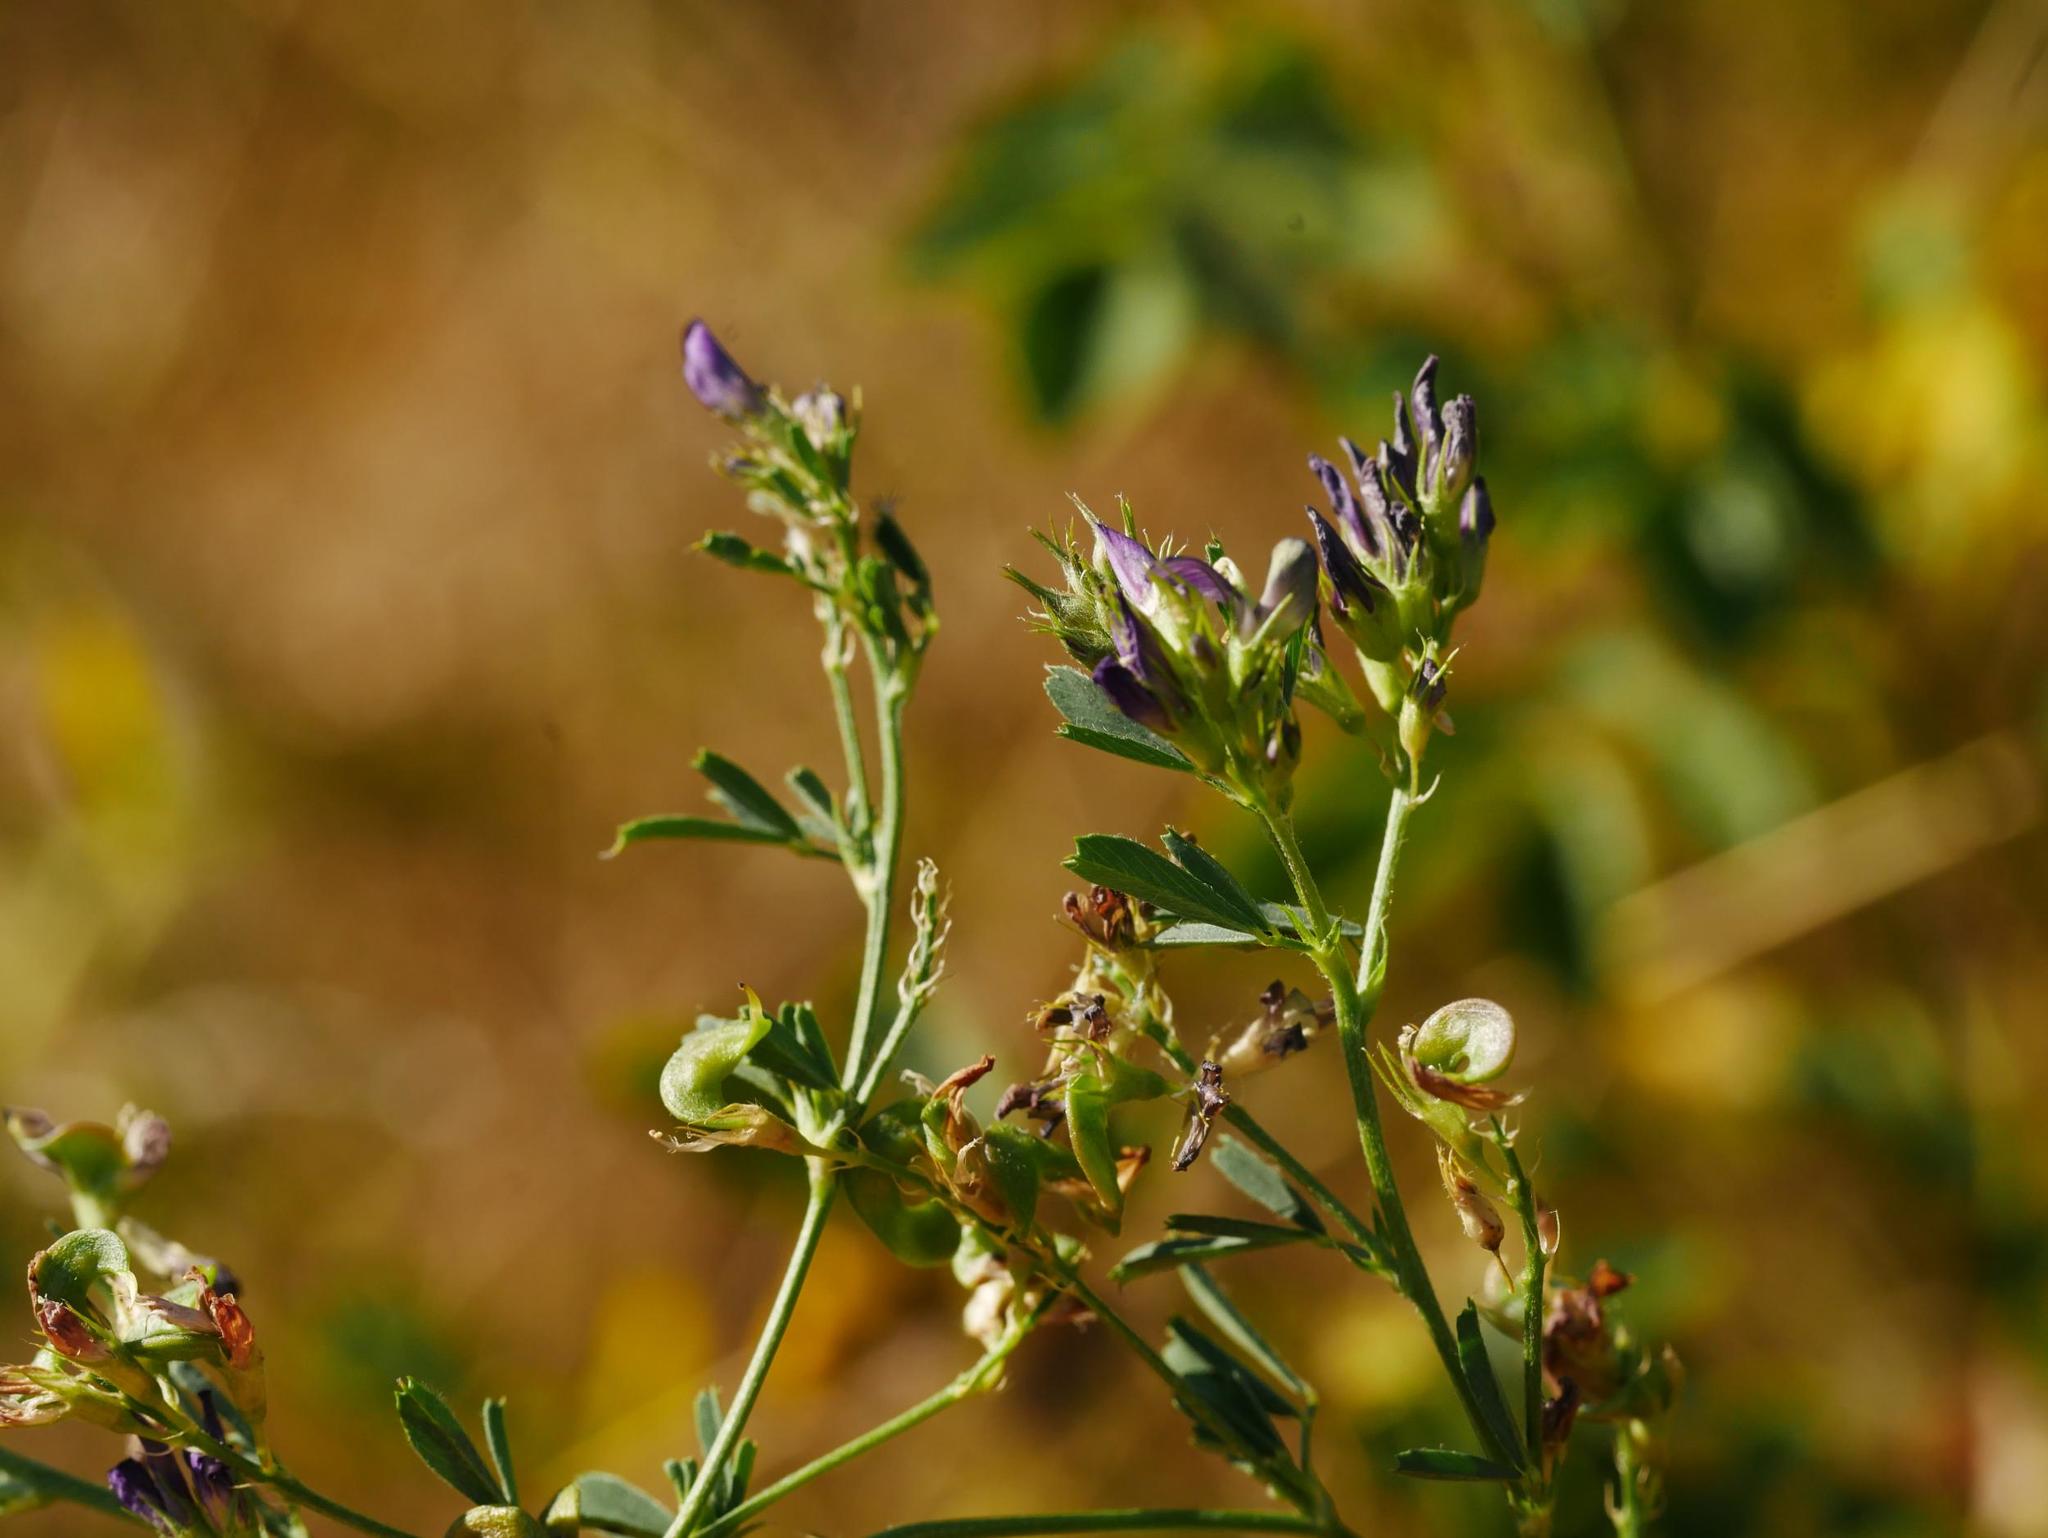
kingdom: Plantae
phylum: Tracheophyta
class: Magnoliopsida
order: Fabales
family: Fabaceae
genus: Medicago
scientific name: Medicago varia
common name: Sand lucerne
